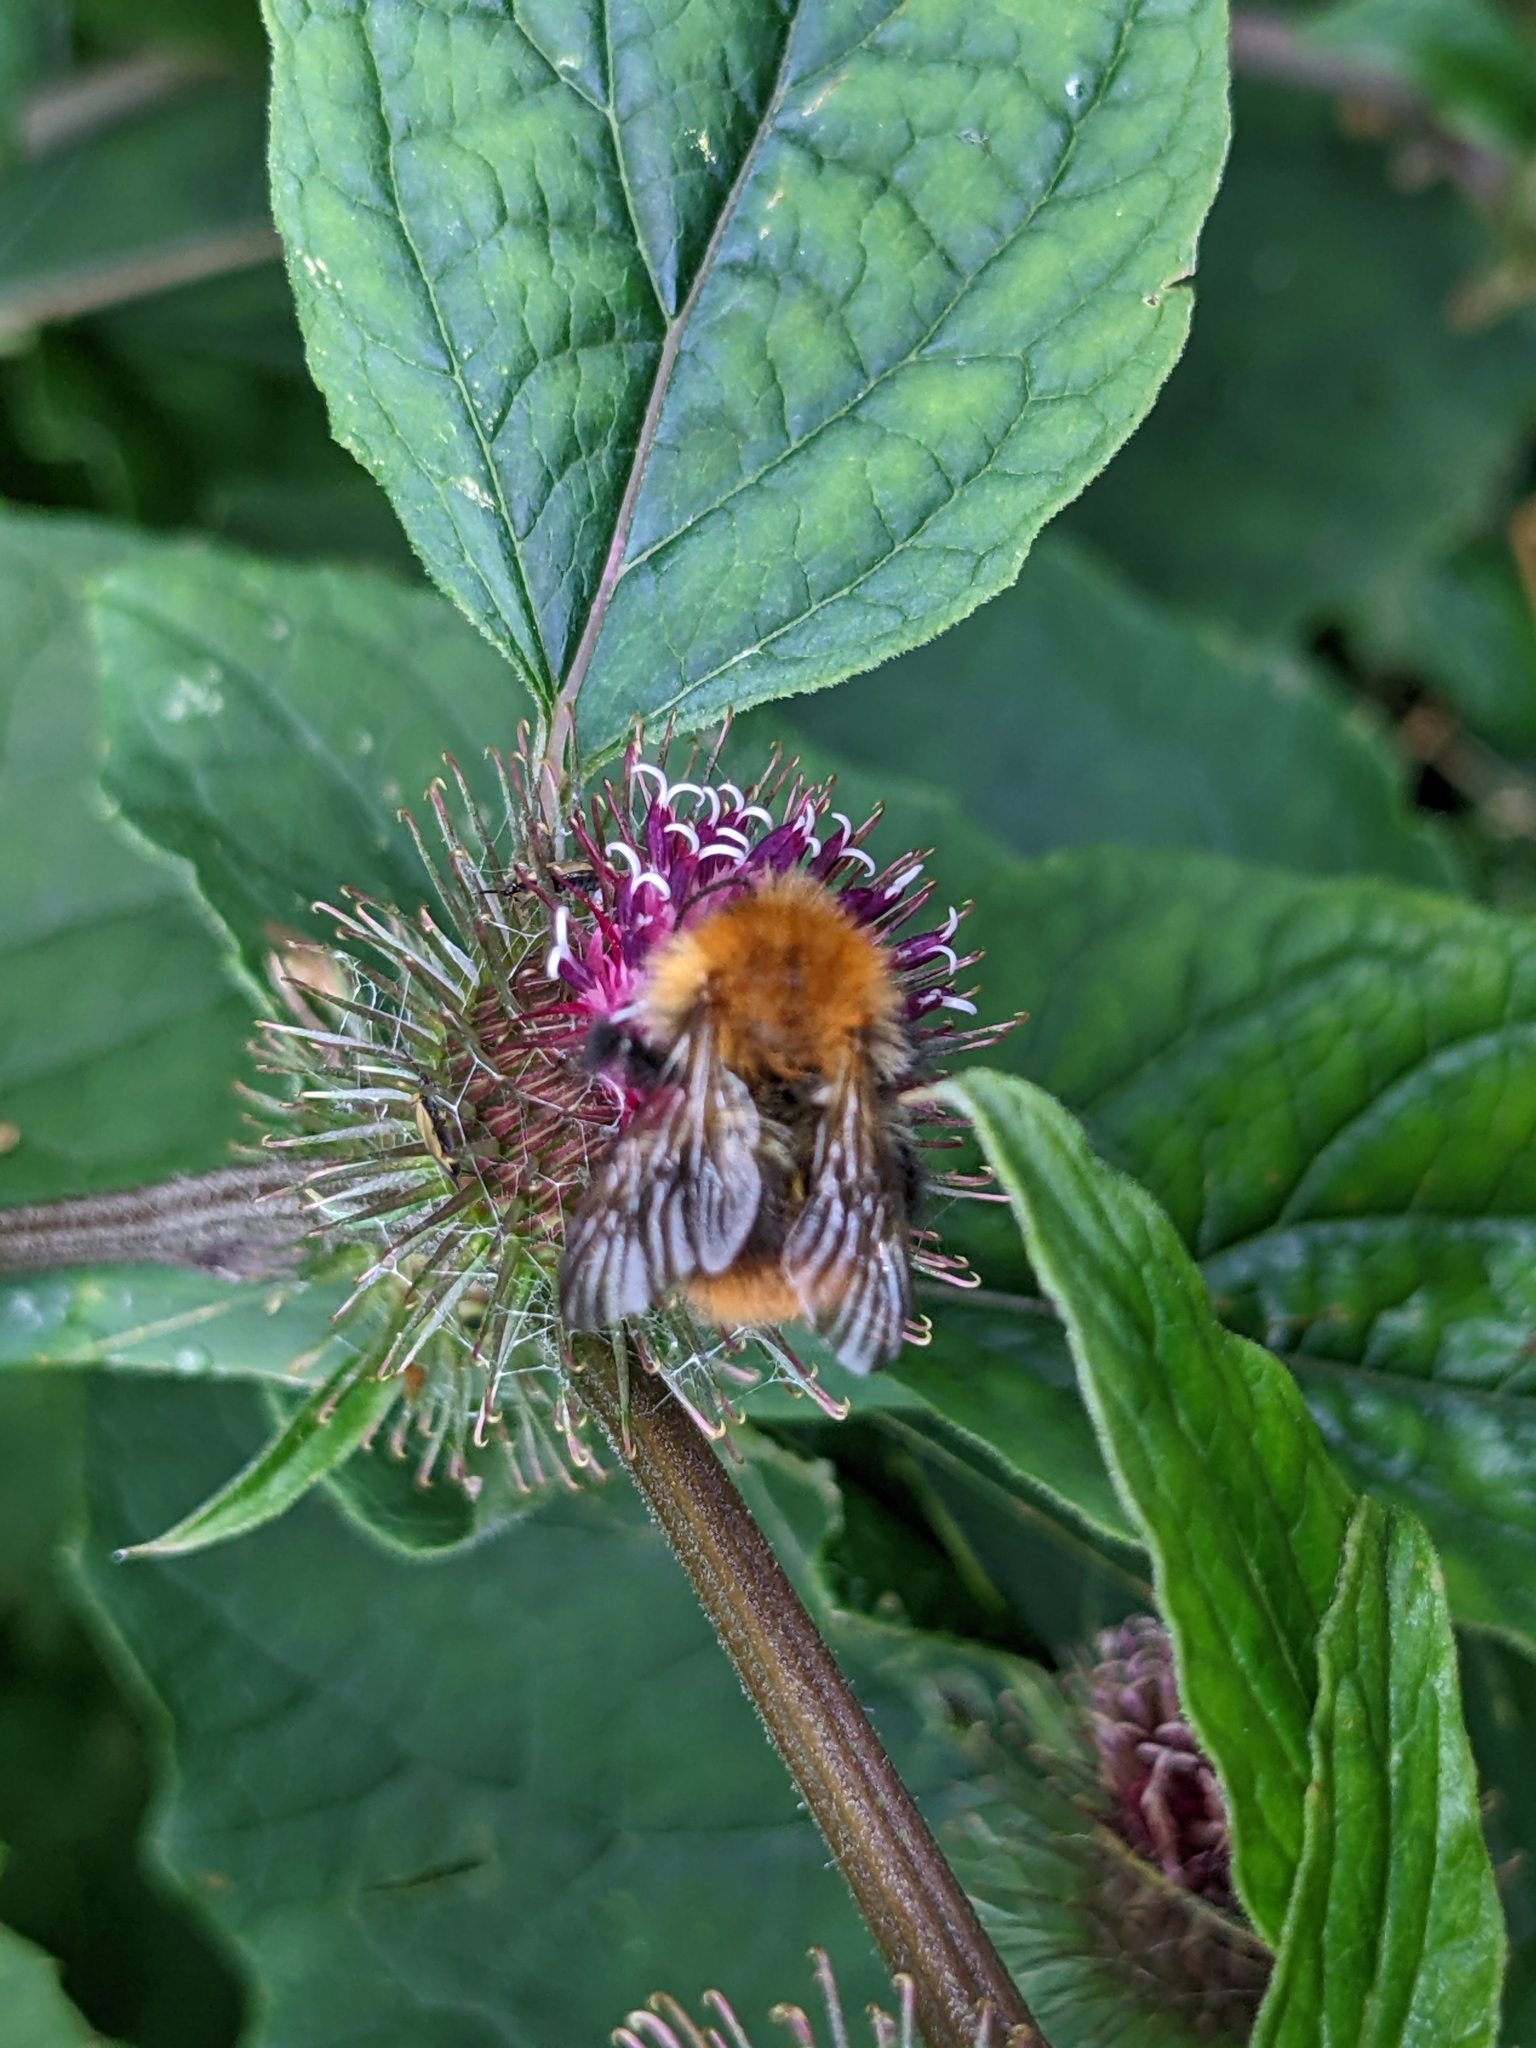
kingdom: Animalia
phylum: Arthropoda
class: Insecta
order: Hymenoptera
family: Apidae
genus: Bombus
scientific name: Bombus pascuorum
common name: Common carder bee
